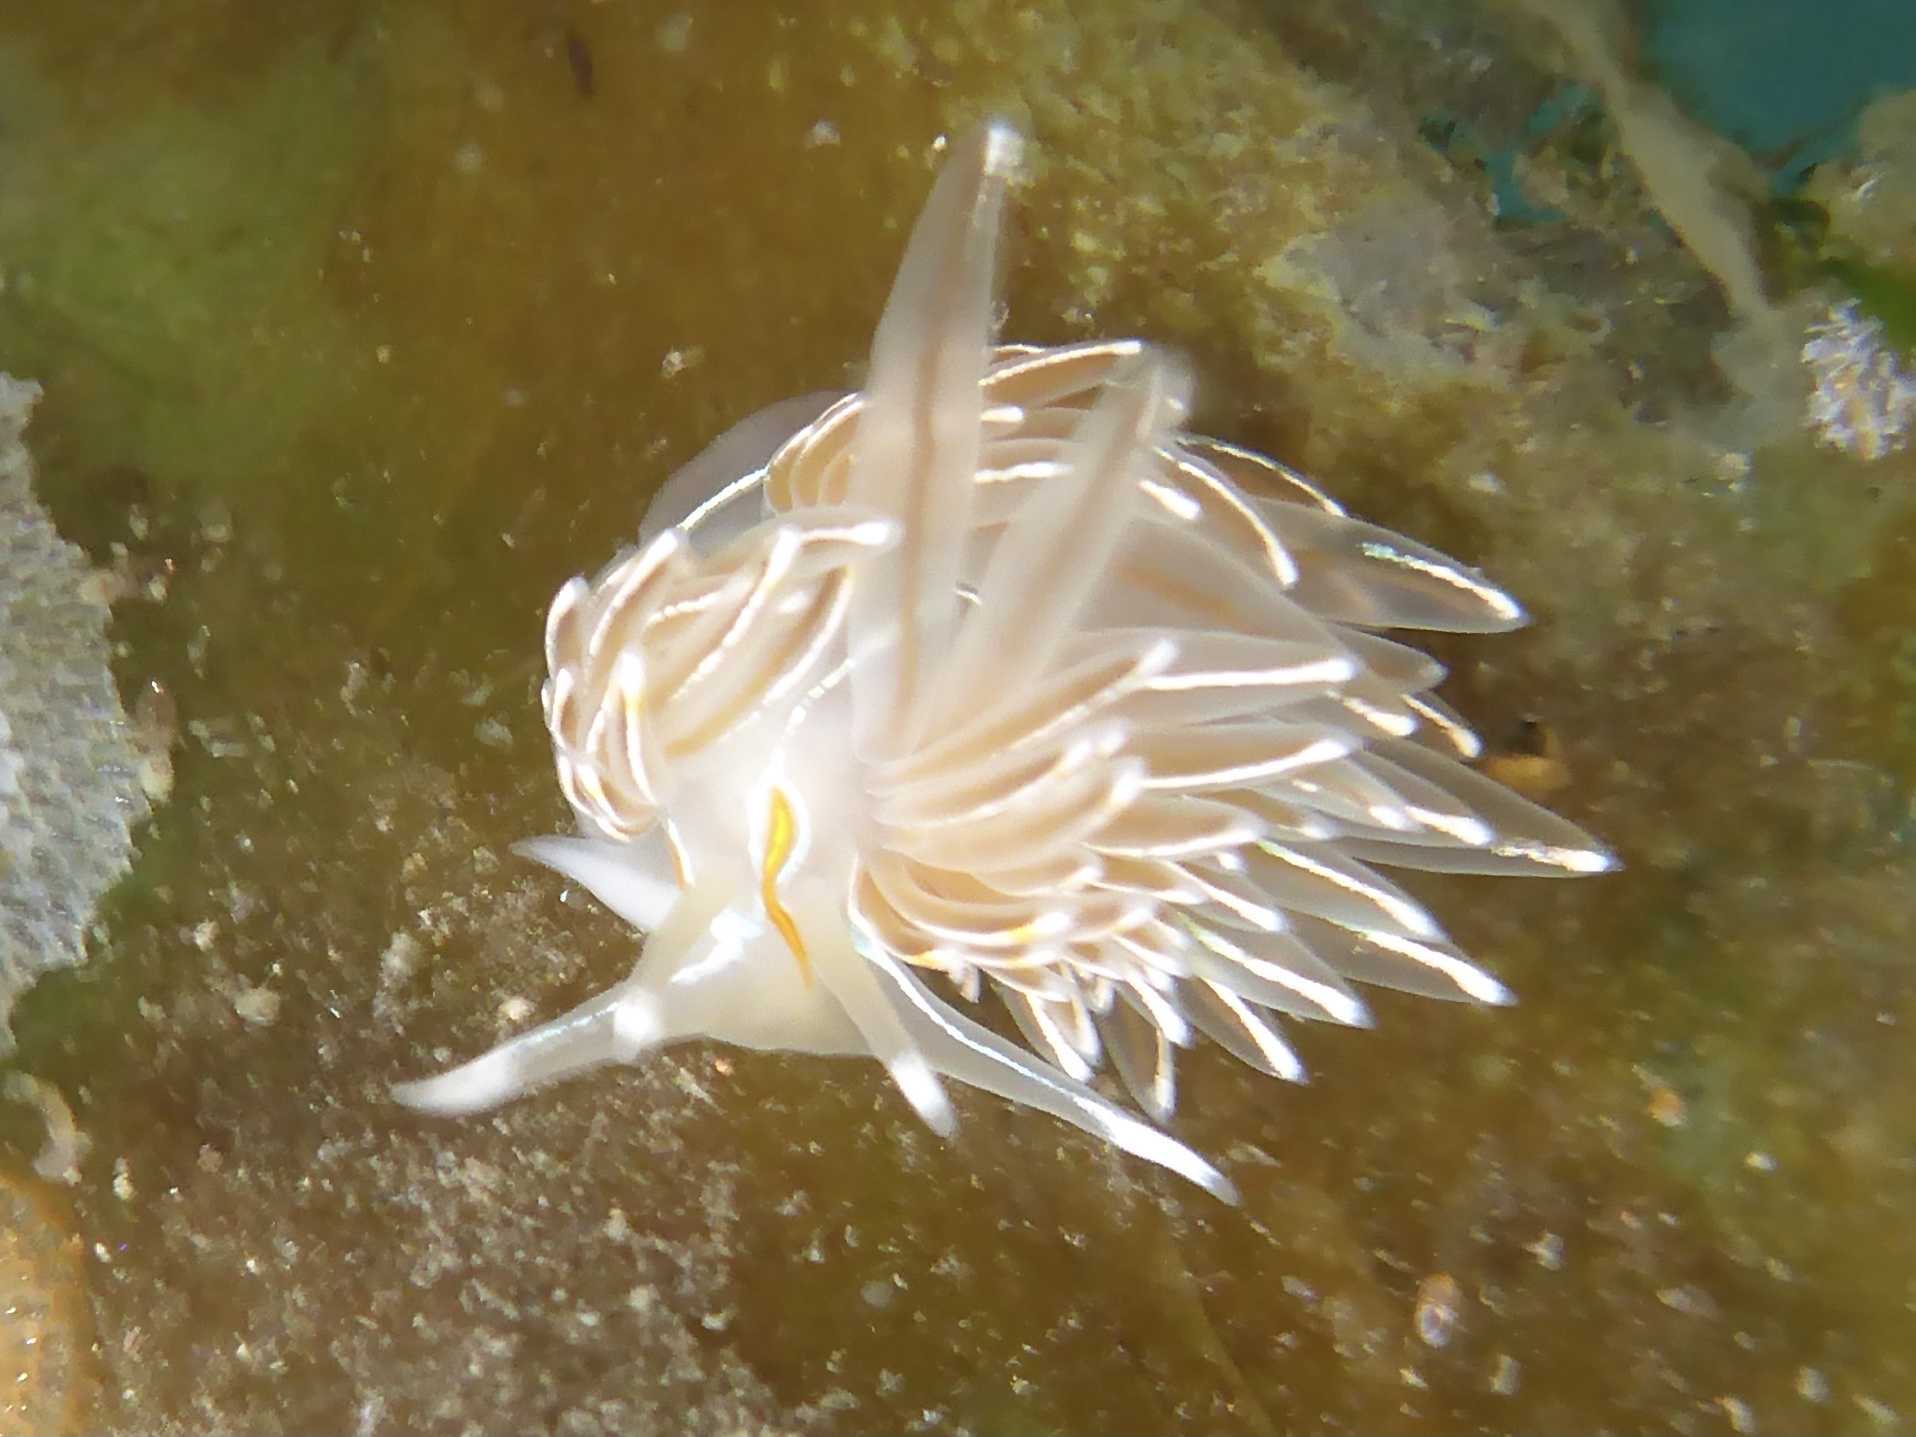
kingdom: Animalia
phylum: Mollusca
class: Gastropoda
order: Nudibranchia
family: Myrrhinidae
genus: Hermissenda
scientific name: Hermissenda crassicornis
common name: Hermissenda
